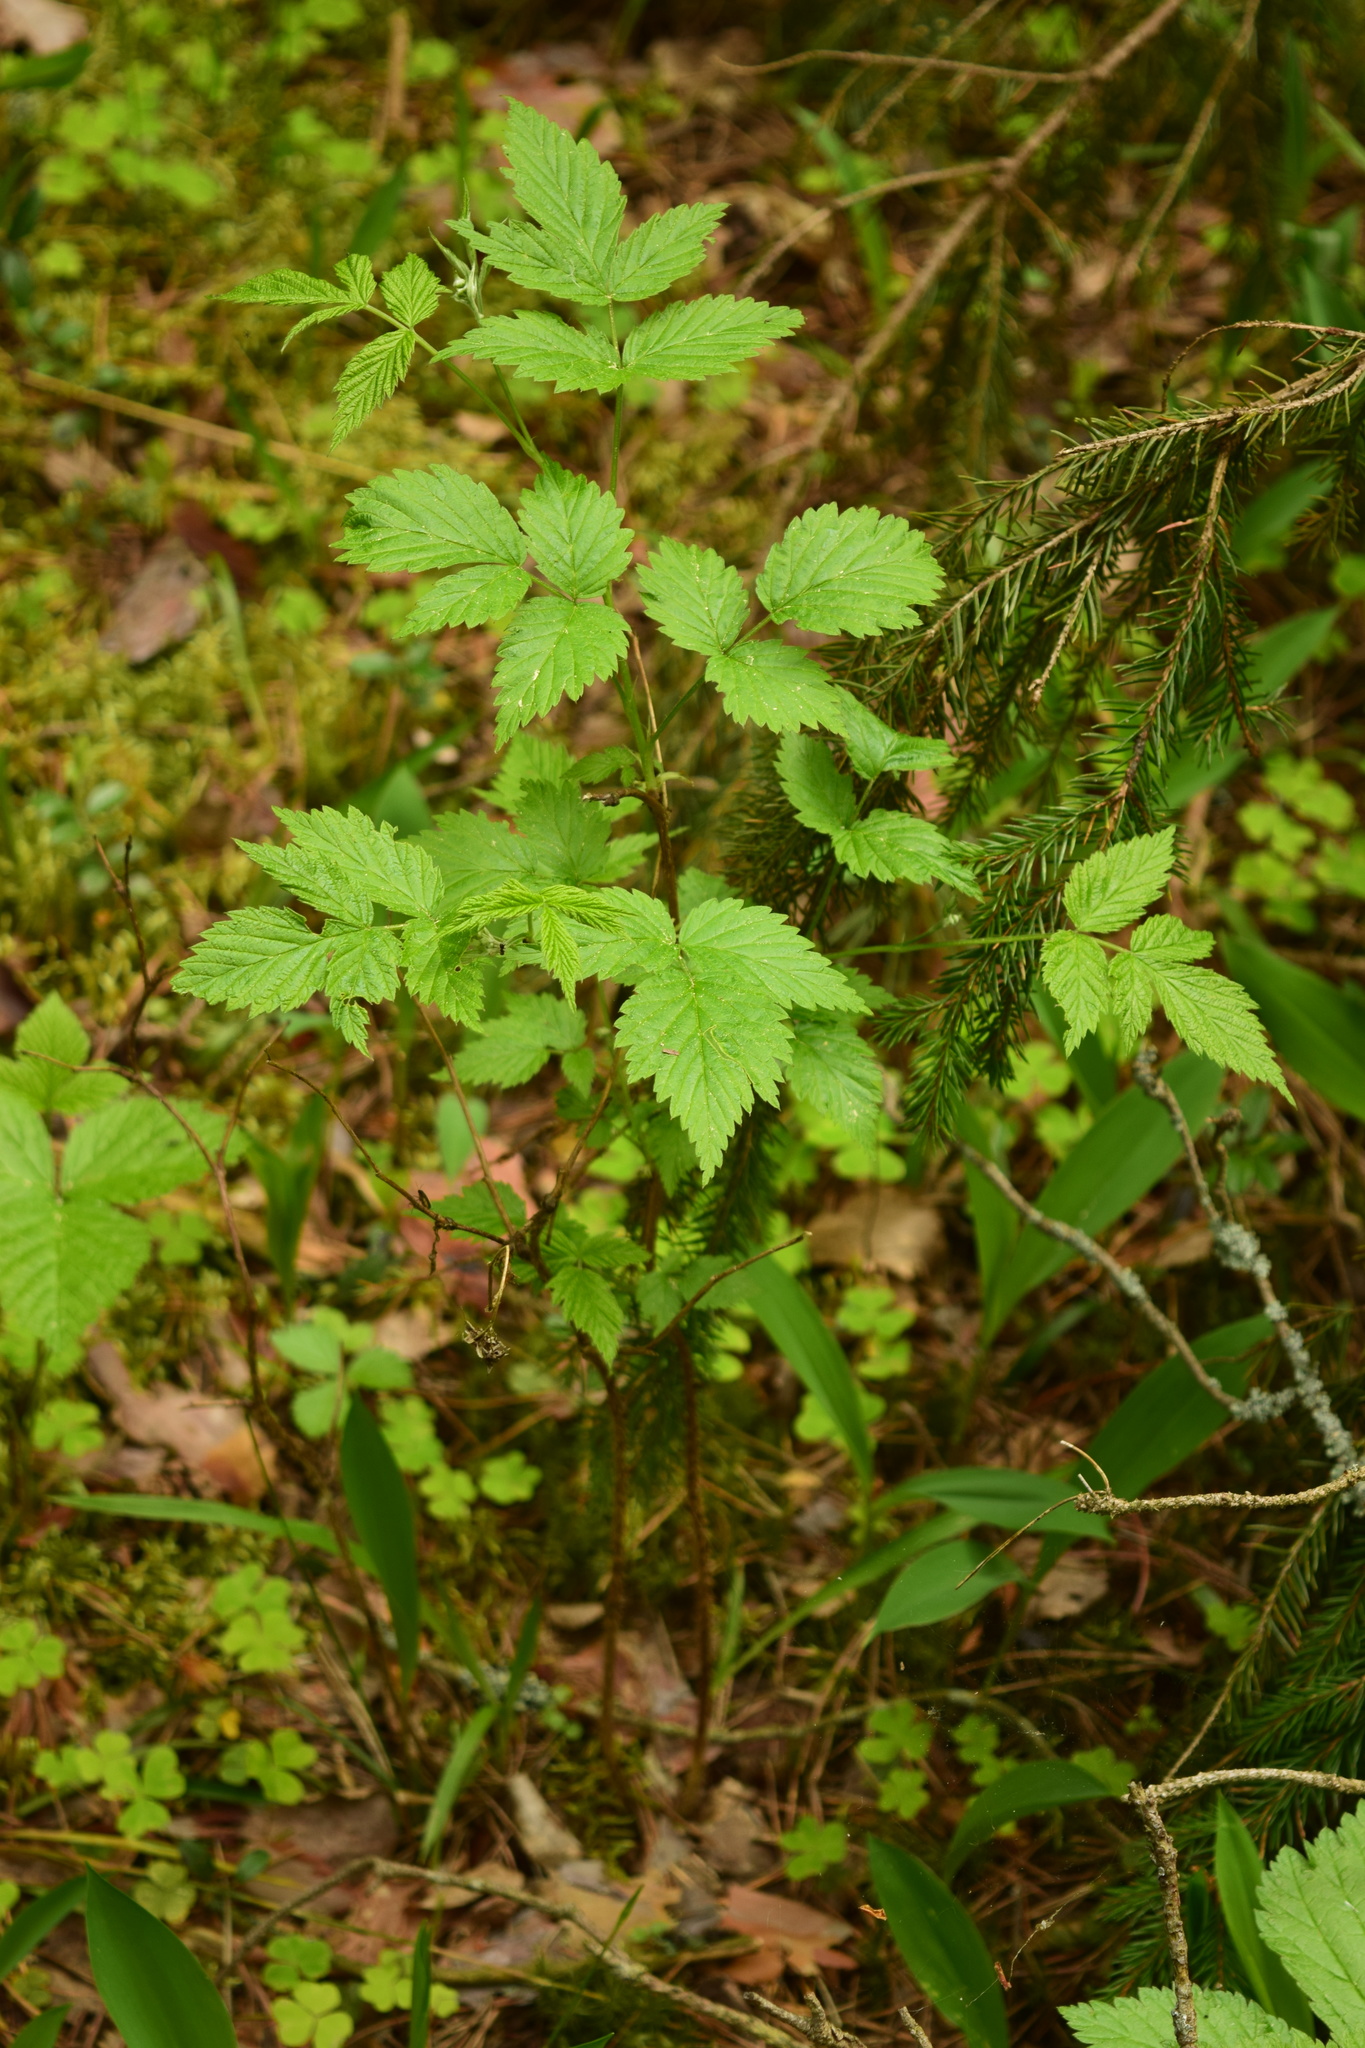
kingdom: Plantae
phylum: Tracheophyta
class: Magnoliopsida
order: Rosales
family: Rosaceae
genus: Rubus
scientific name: Rubus idaeus
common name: Raspberry
